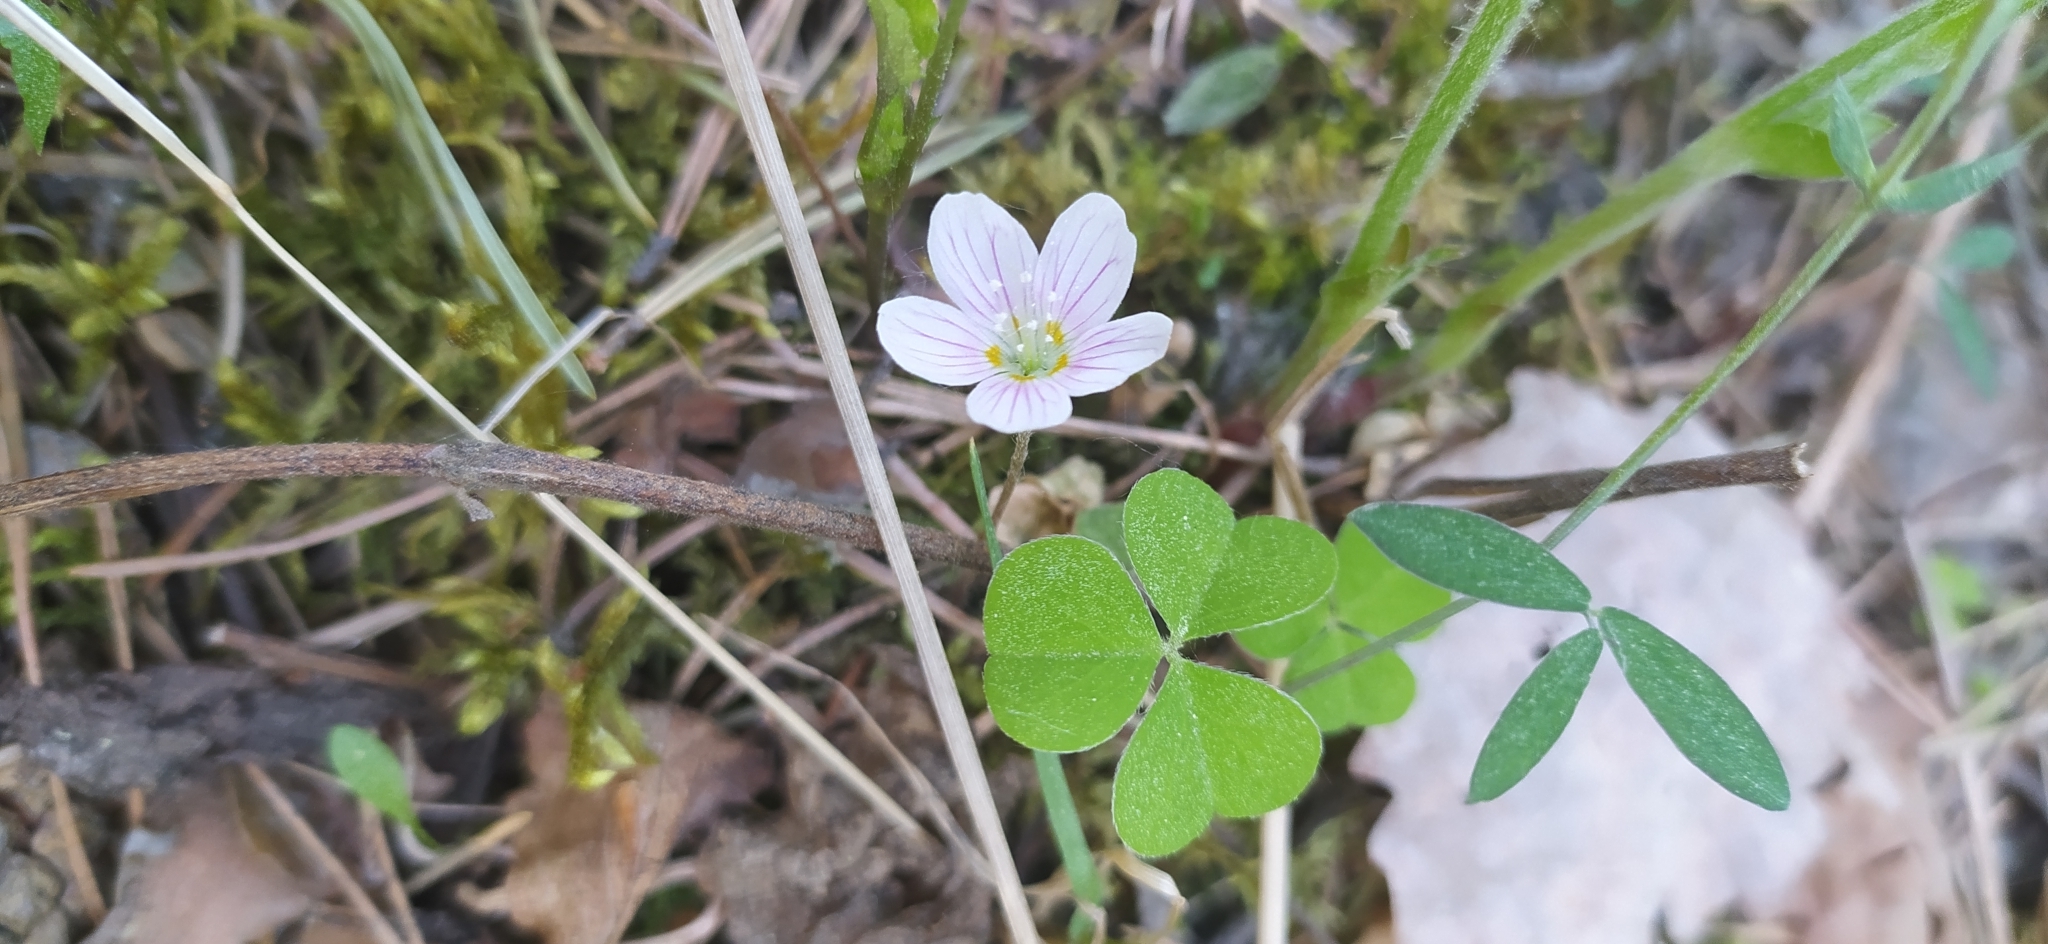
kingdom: Plantae
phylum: Tracheophyta
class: Magnoliopsida
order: Oxalidales
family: Oxalidaceae
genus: Oxalis
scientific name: Oxalis acetosella
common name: Wood-sorrel
